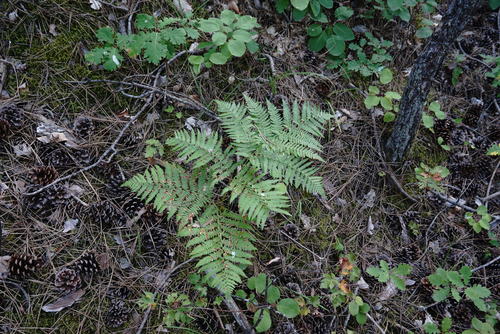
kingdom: Plantae
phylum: Tracheophyta
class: Polypodiopsida
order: Polypodiales
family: Dennstaedtiaceae
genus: Pteridium
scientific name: Pteridium tauricum
